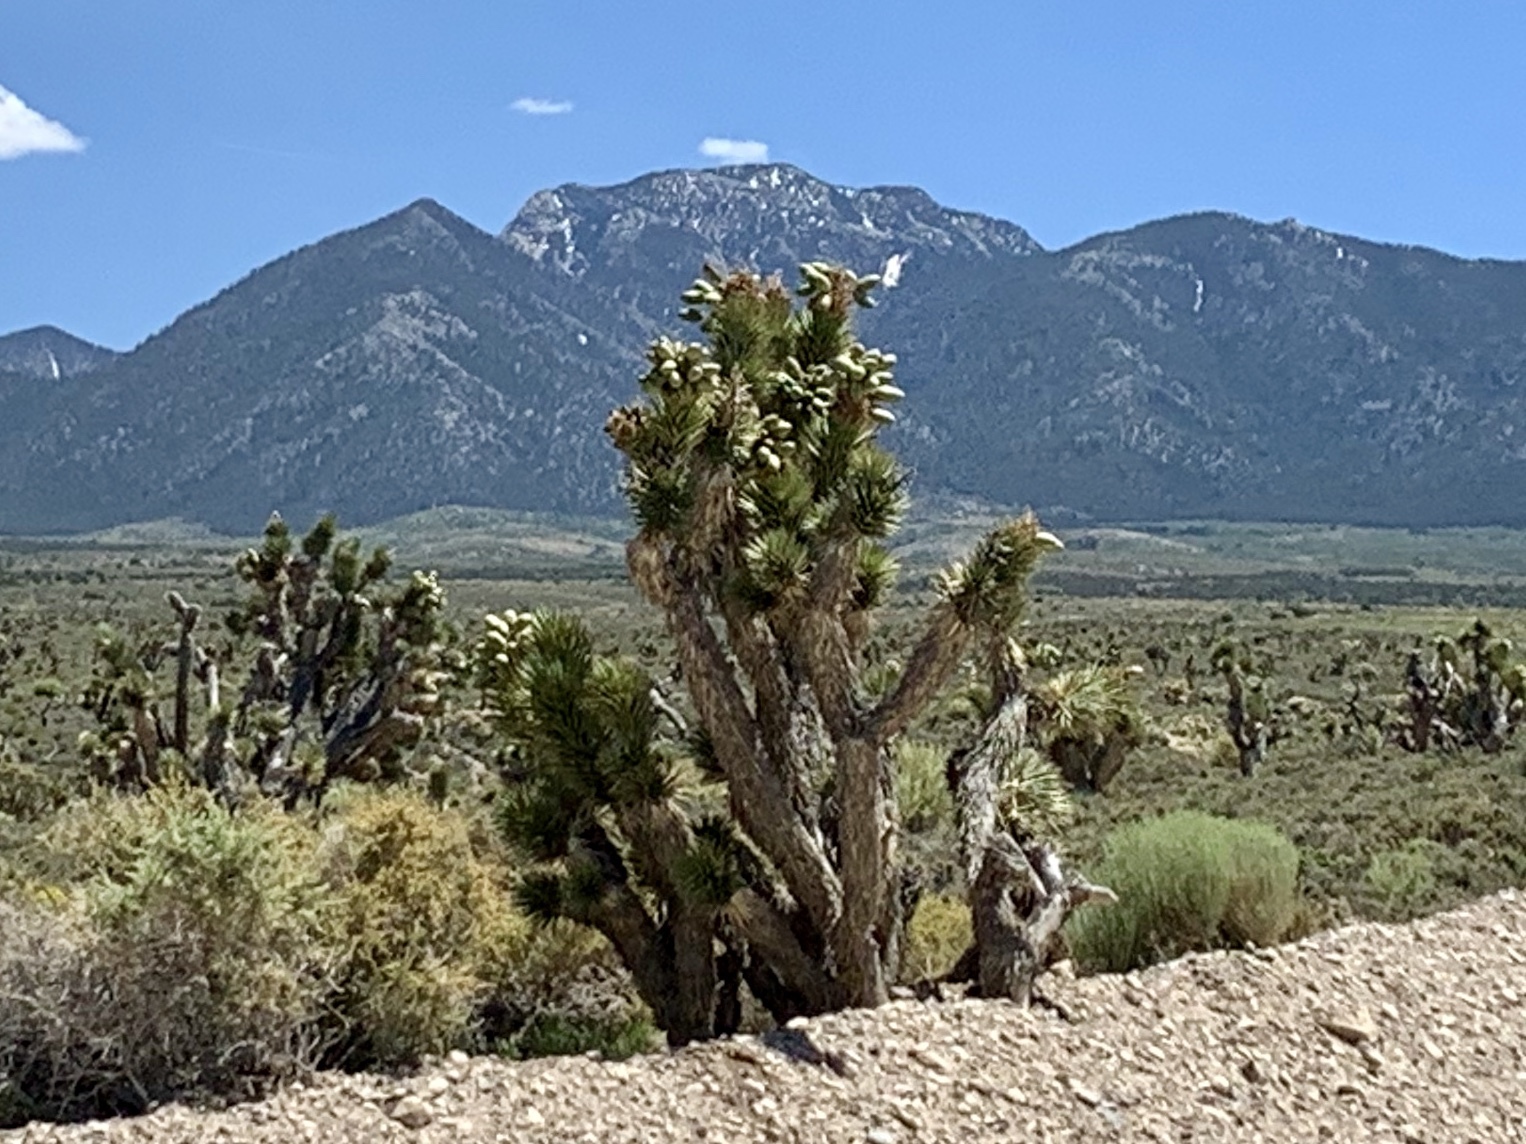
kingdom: Plantae
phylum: Tracheophyta
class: Liliopsida
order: Asparagales
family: Asparagaceae
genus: Yucca
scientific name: Yucca brevifolia
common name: Joshua tree
